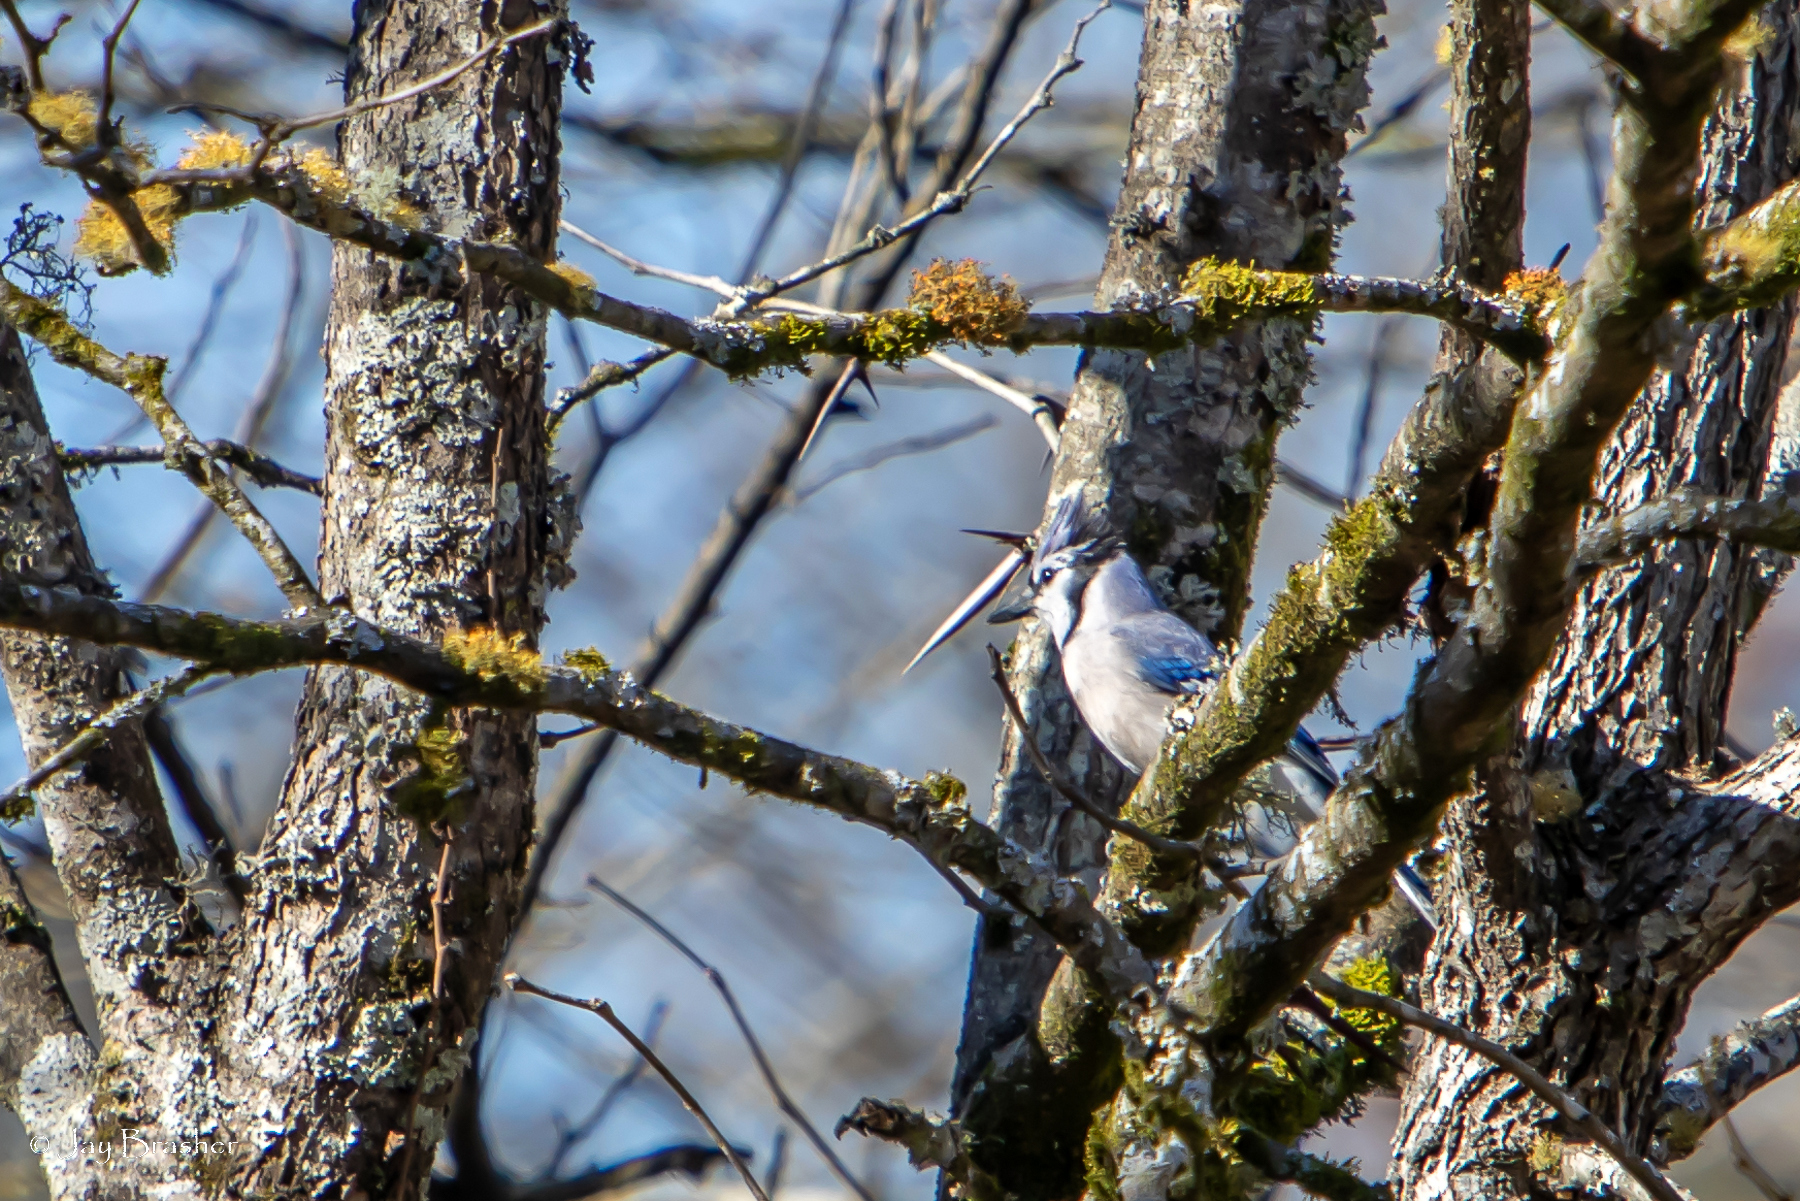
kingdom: Animalia
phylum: Chordata
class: Aves
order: Passeriformes
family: Corvidae
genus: Cyanocitta
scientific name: Cyanocitta cristata
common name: Blue jay
